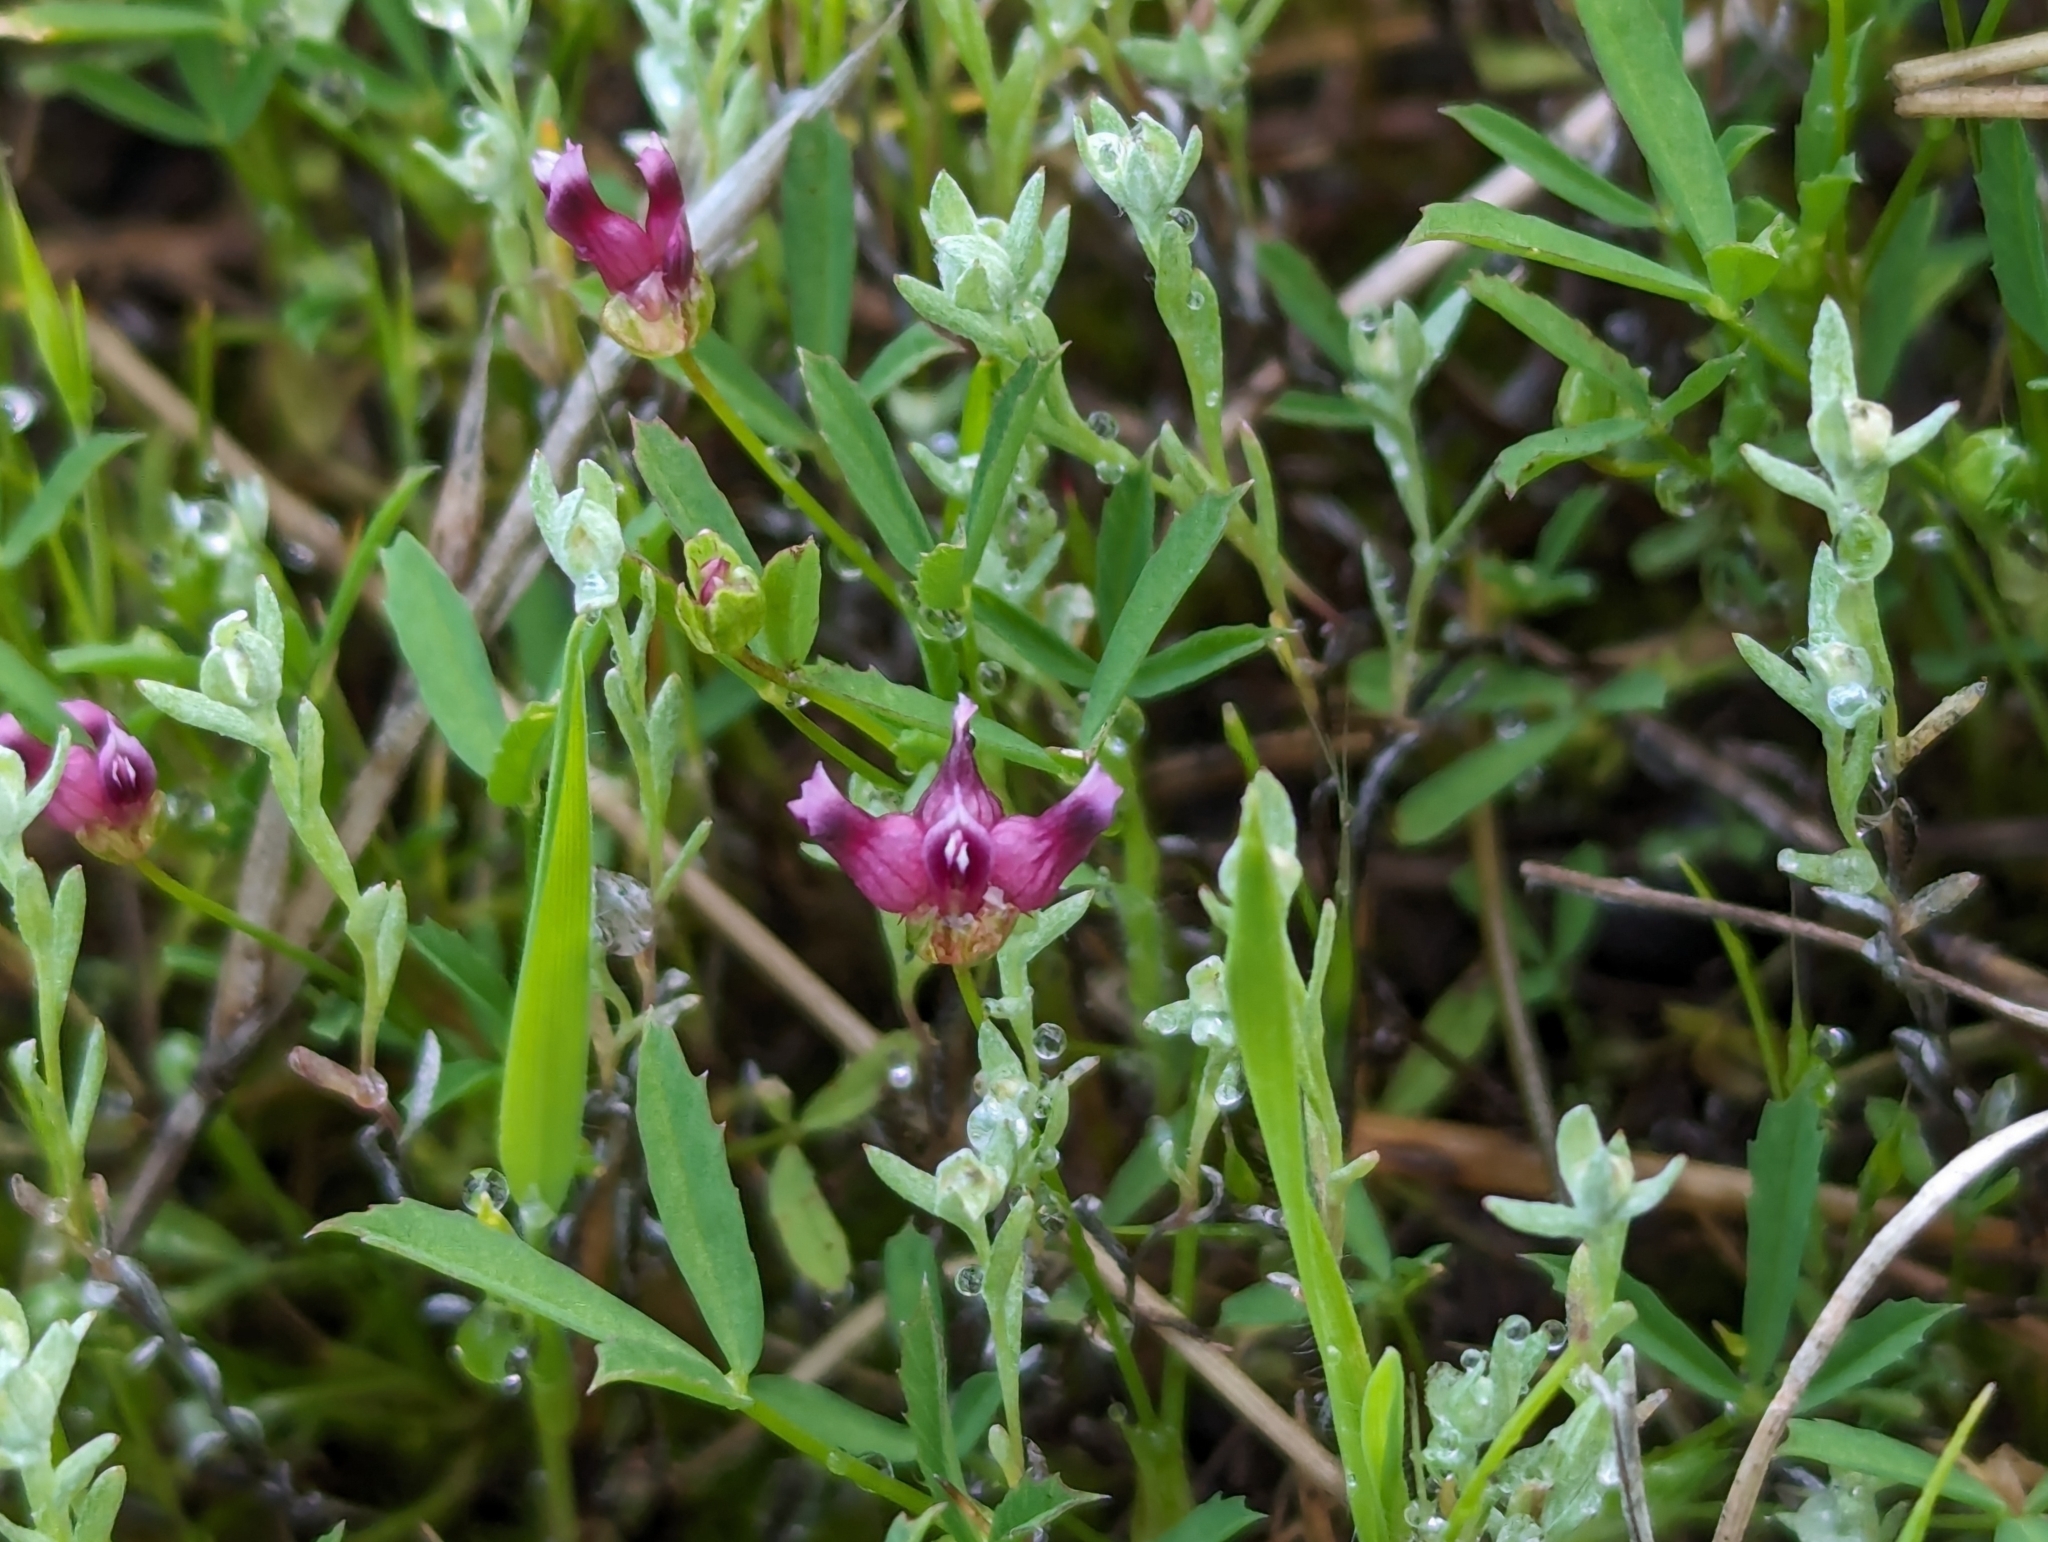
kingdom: Plantae
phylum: Tracheophyta
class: Magnoliopsida
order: Fabales
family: Fabaceae
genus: Trifolium
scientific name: Trifolium depauperatum
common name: Poverty clover
